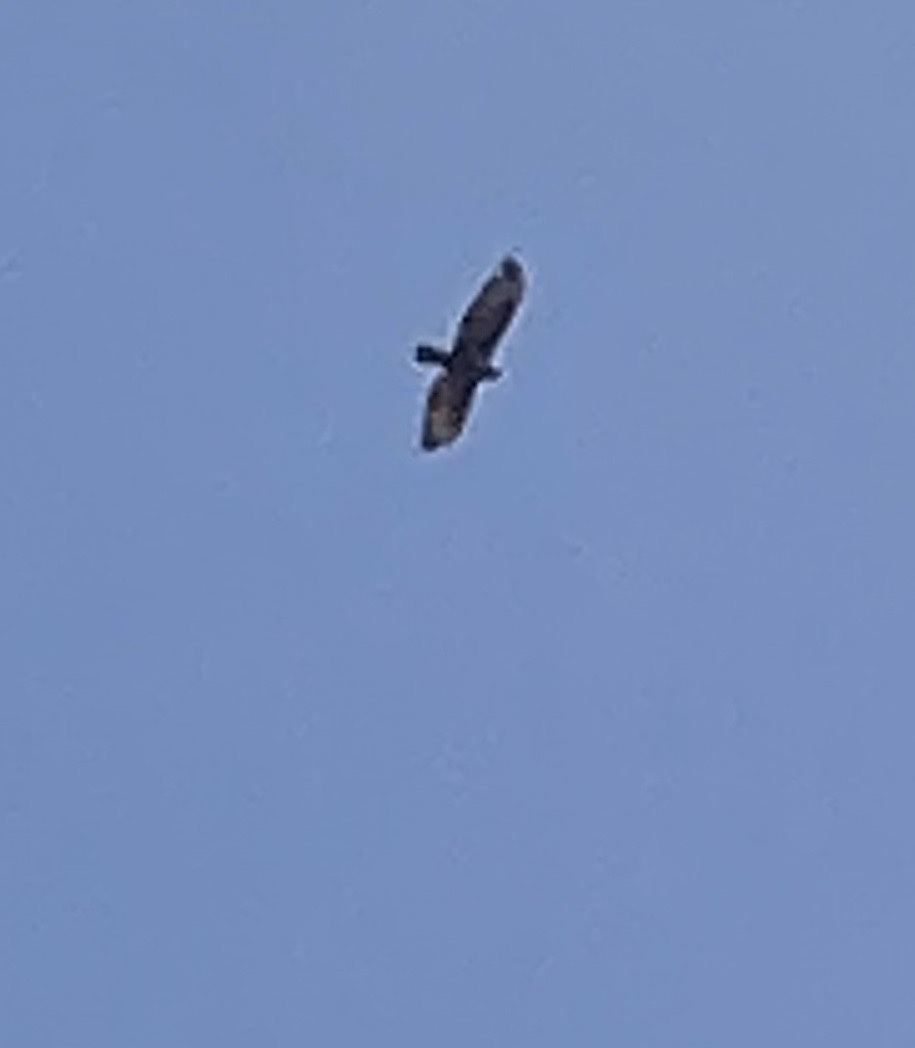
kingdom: Animalia
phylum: Chordata
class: Aves
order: Accipitriformes
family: Accipitridae
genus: Buteo
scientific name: Buteo buteo
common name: Common buzzard
